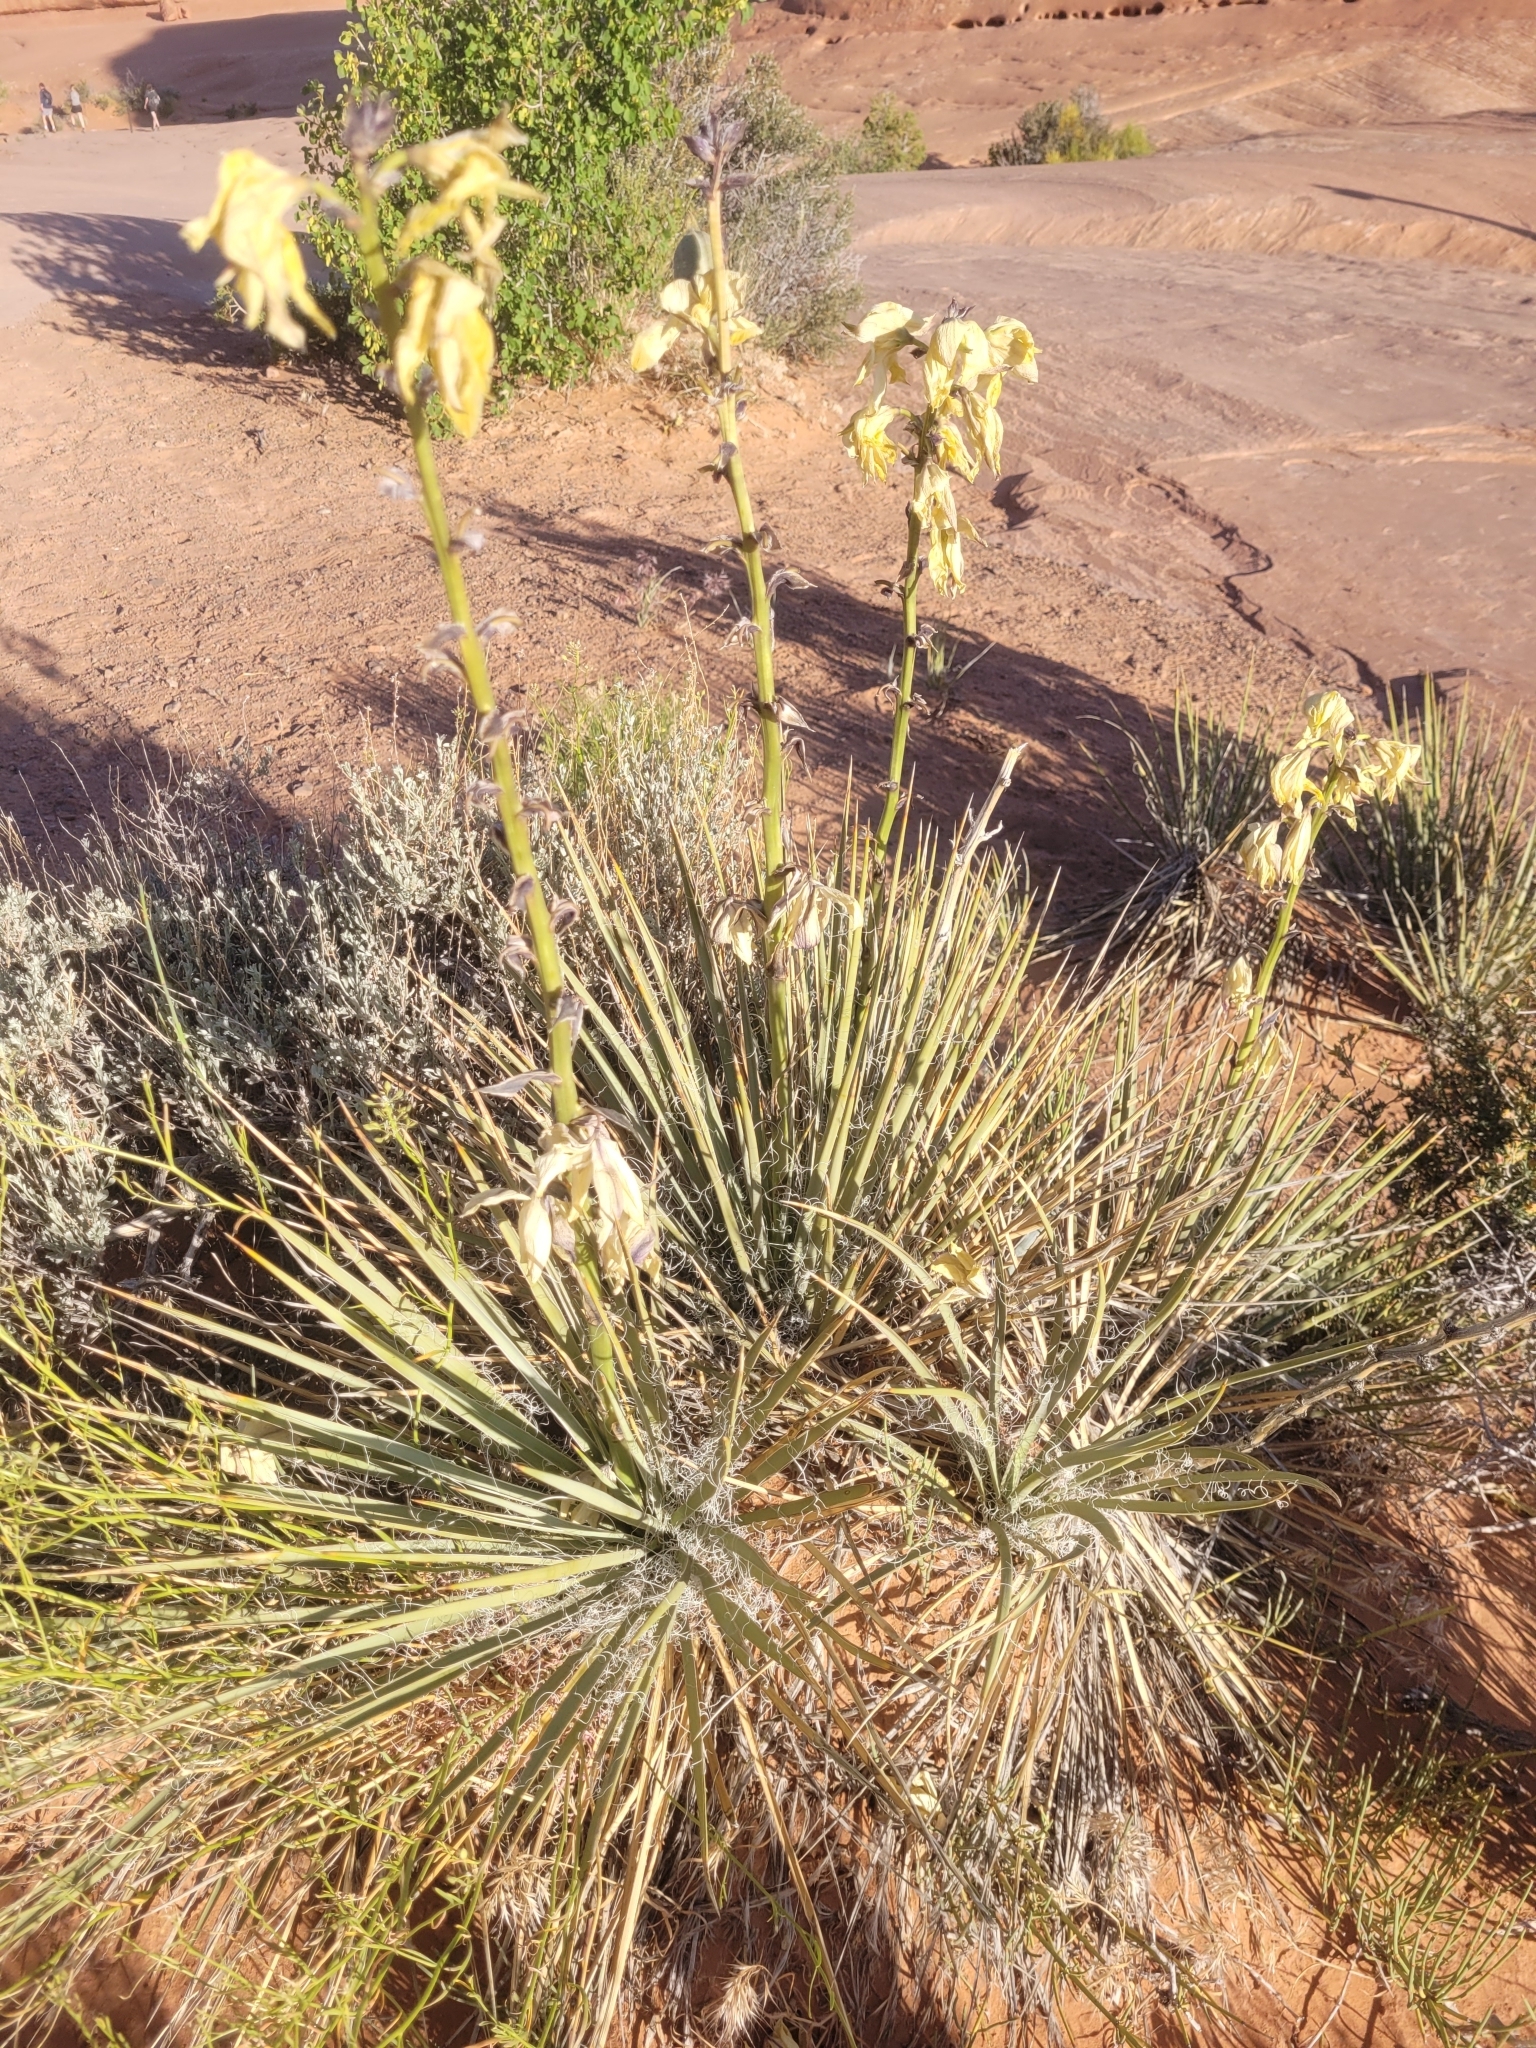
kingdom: Plantae
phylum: Tracheophyta
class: Liliopsida
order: Asparagales
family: Asparagaceae
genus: Yucca
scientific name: Yucca harrimaniae
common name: Harriman's yucca
